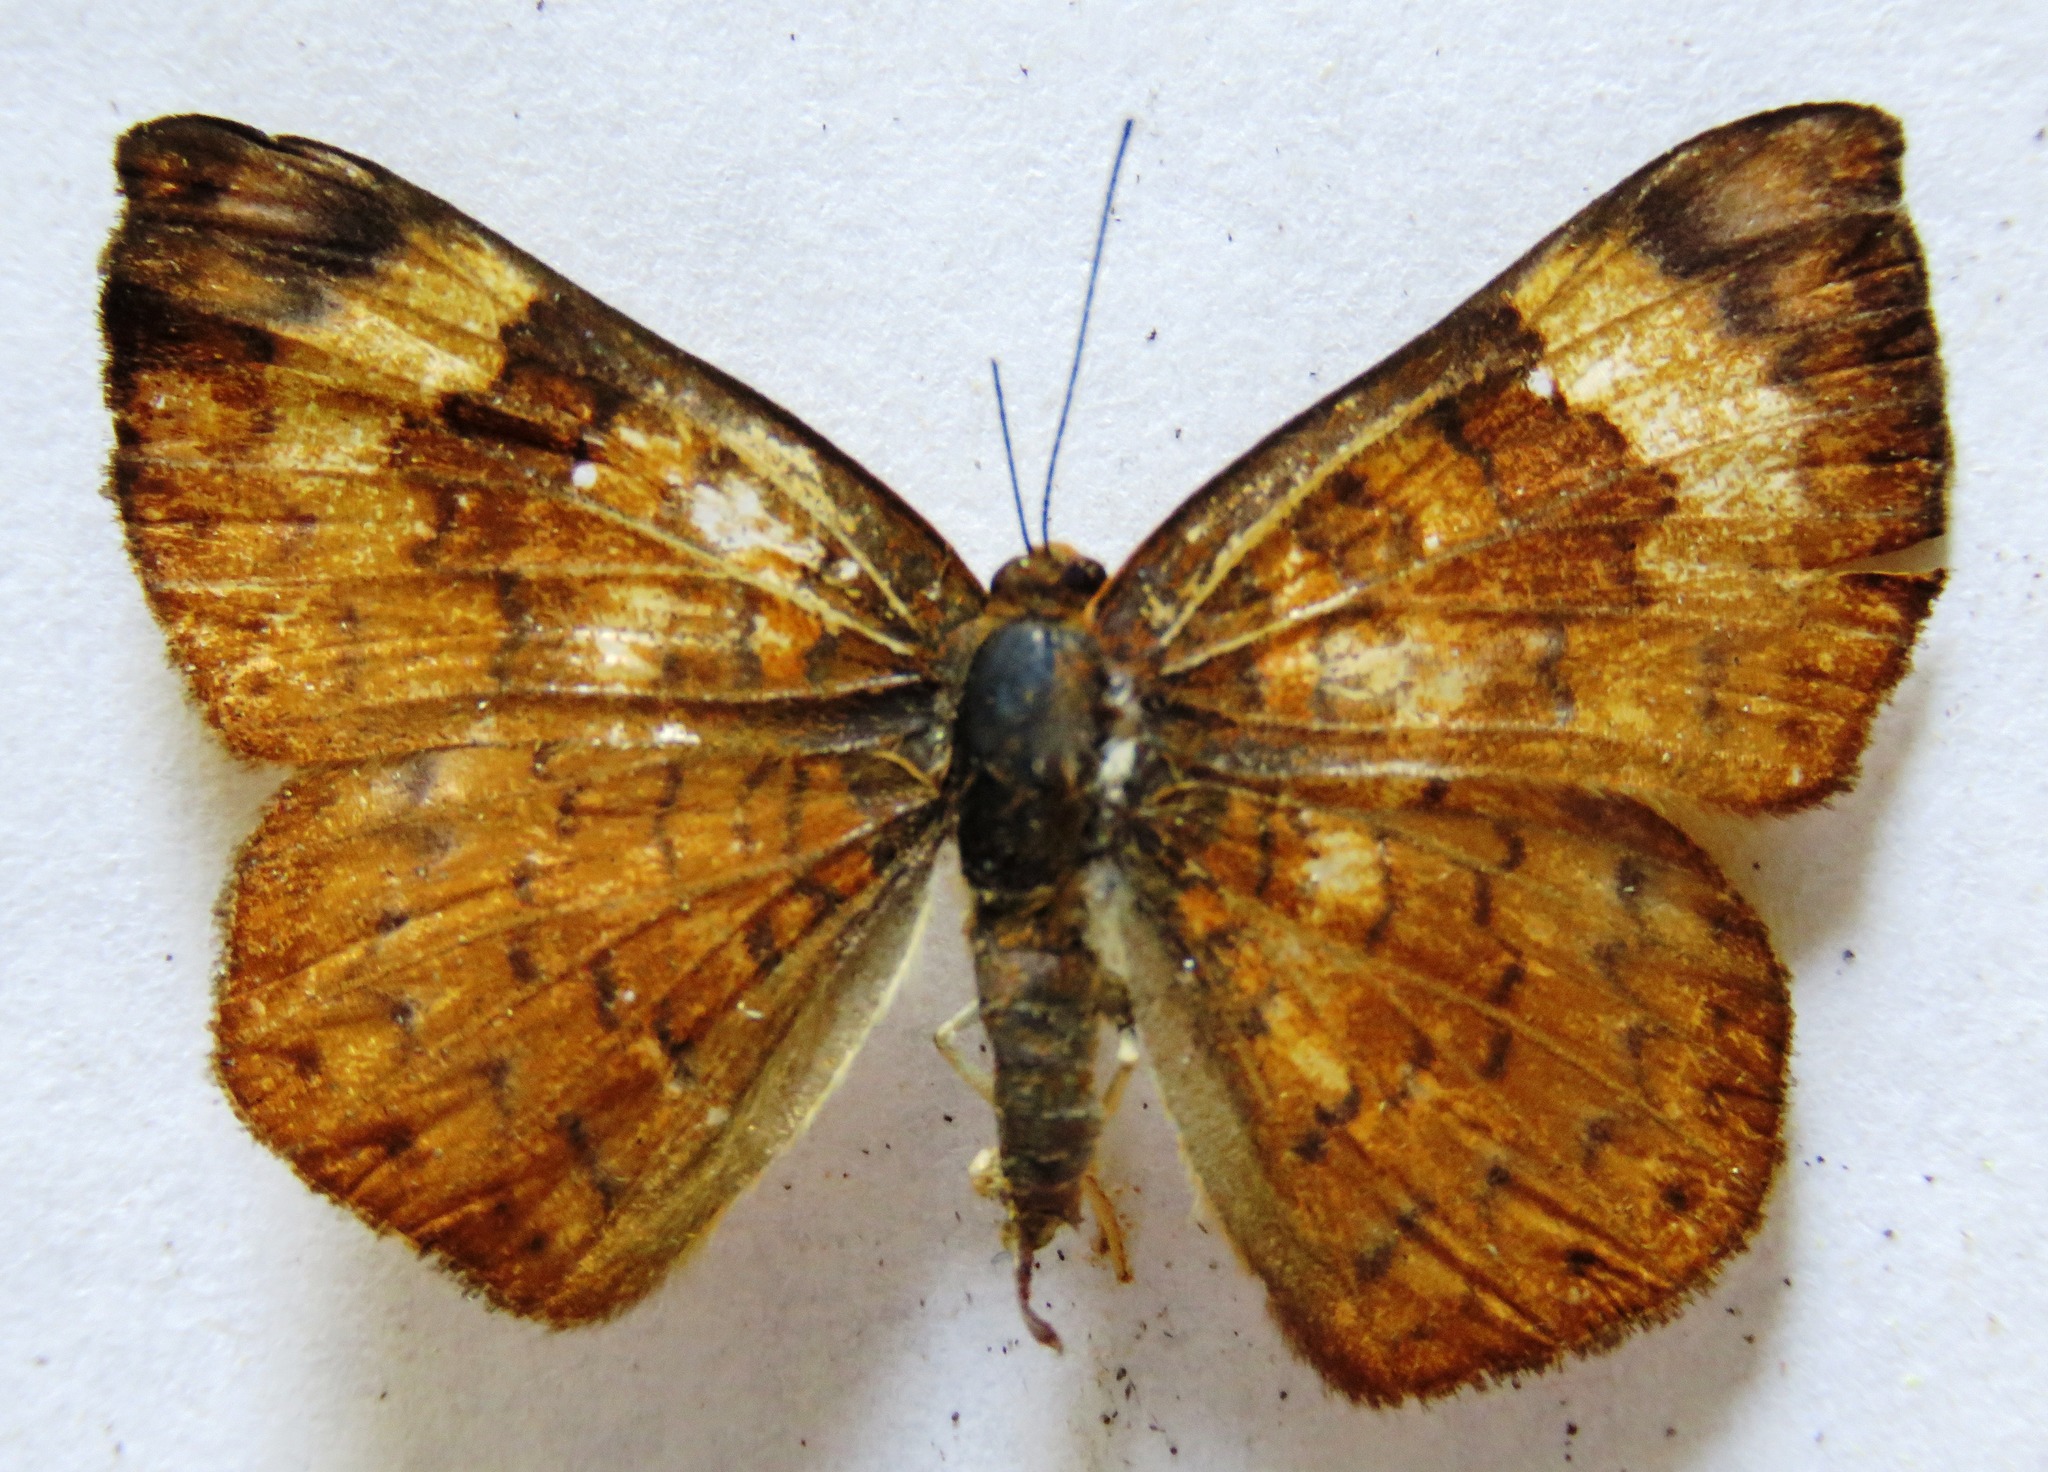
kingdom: Animalia
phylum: Arthropoda
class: Insecta
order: Lepidoptera
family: Lycaenidae
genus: Emesis
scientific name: Emesis tenedia
